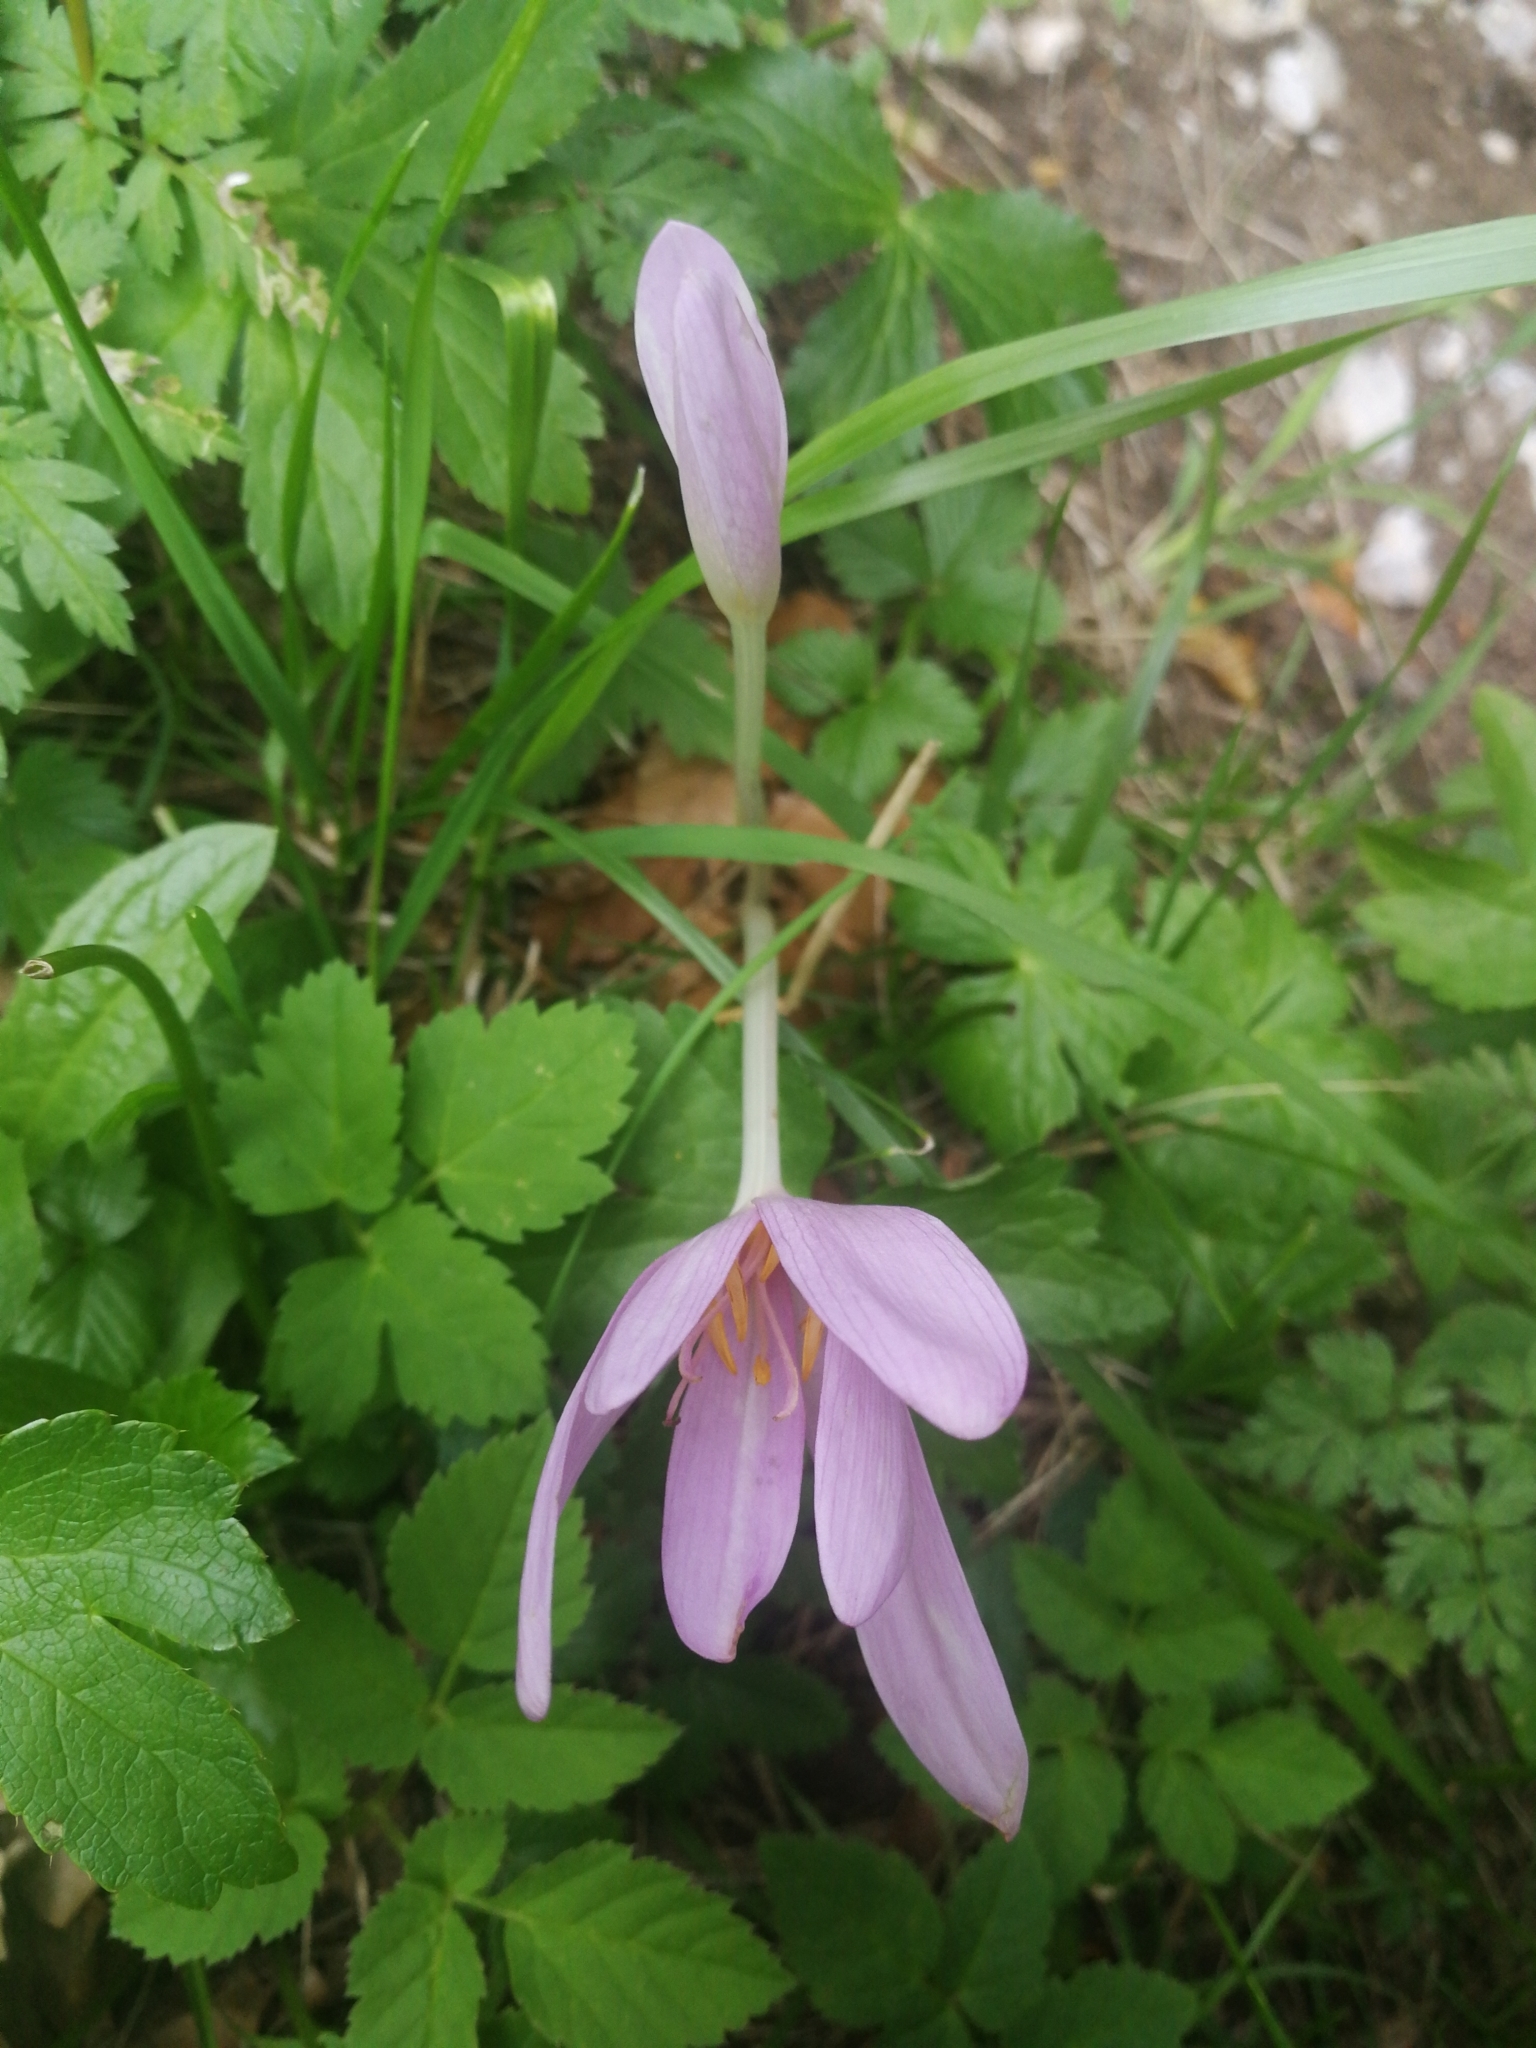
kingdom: Plantae
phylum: Tracheophyta
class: Liliopsida
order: Liliales
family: Colchicaceae
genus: Colchicum
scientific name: Colchicum autumnale
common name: Autumn crocus
